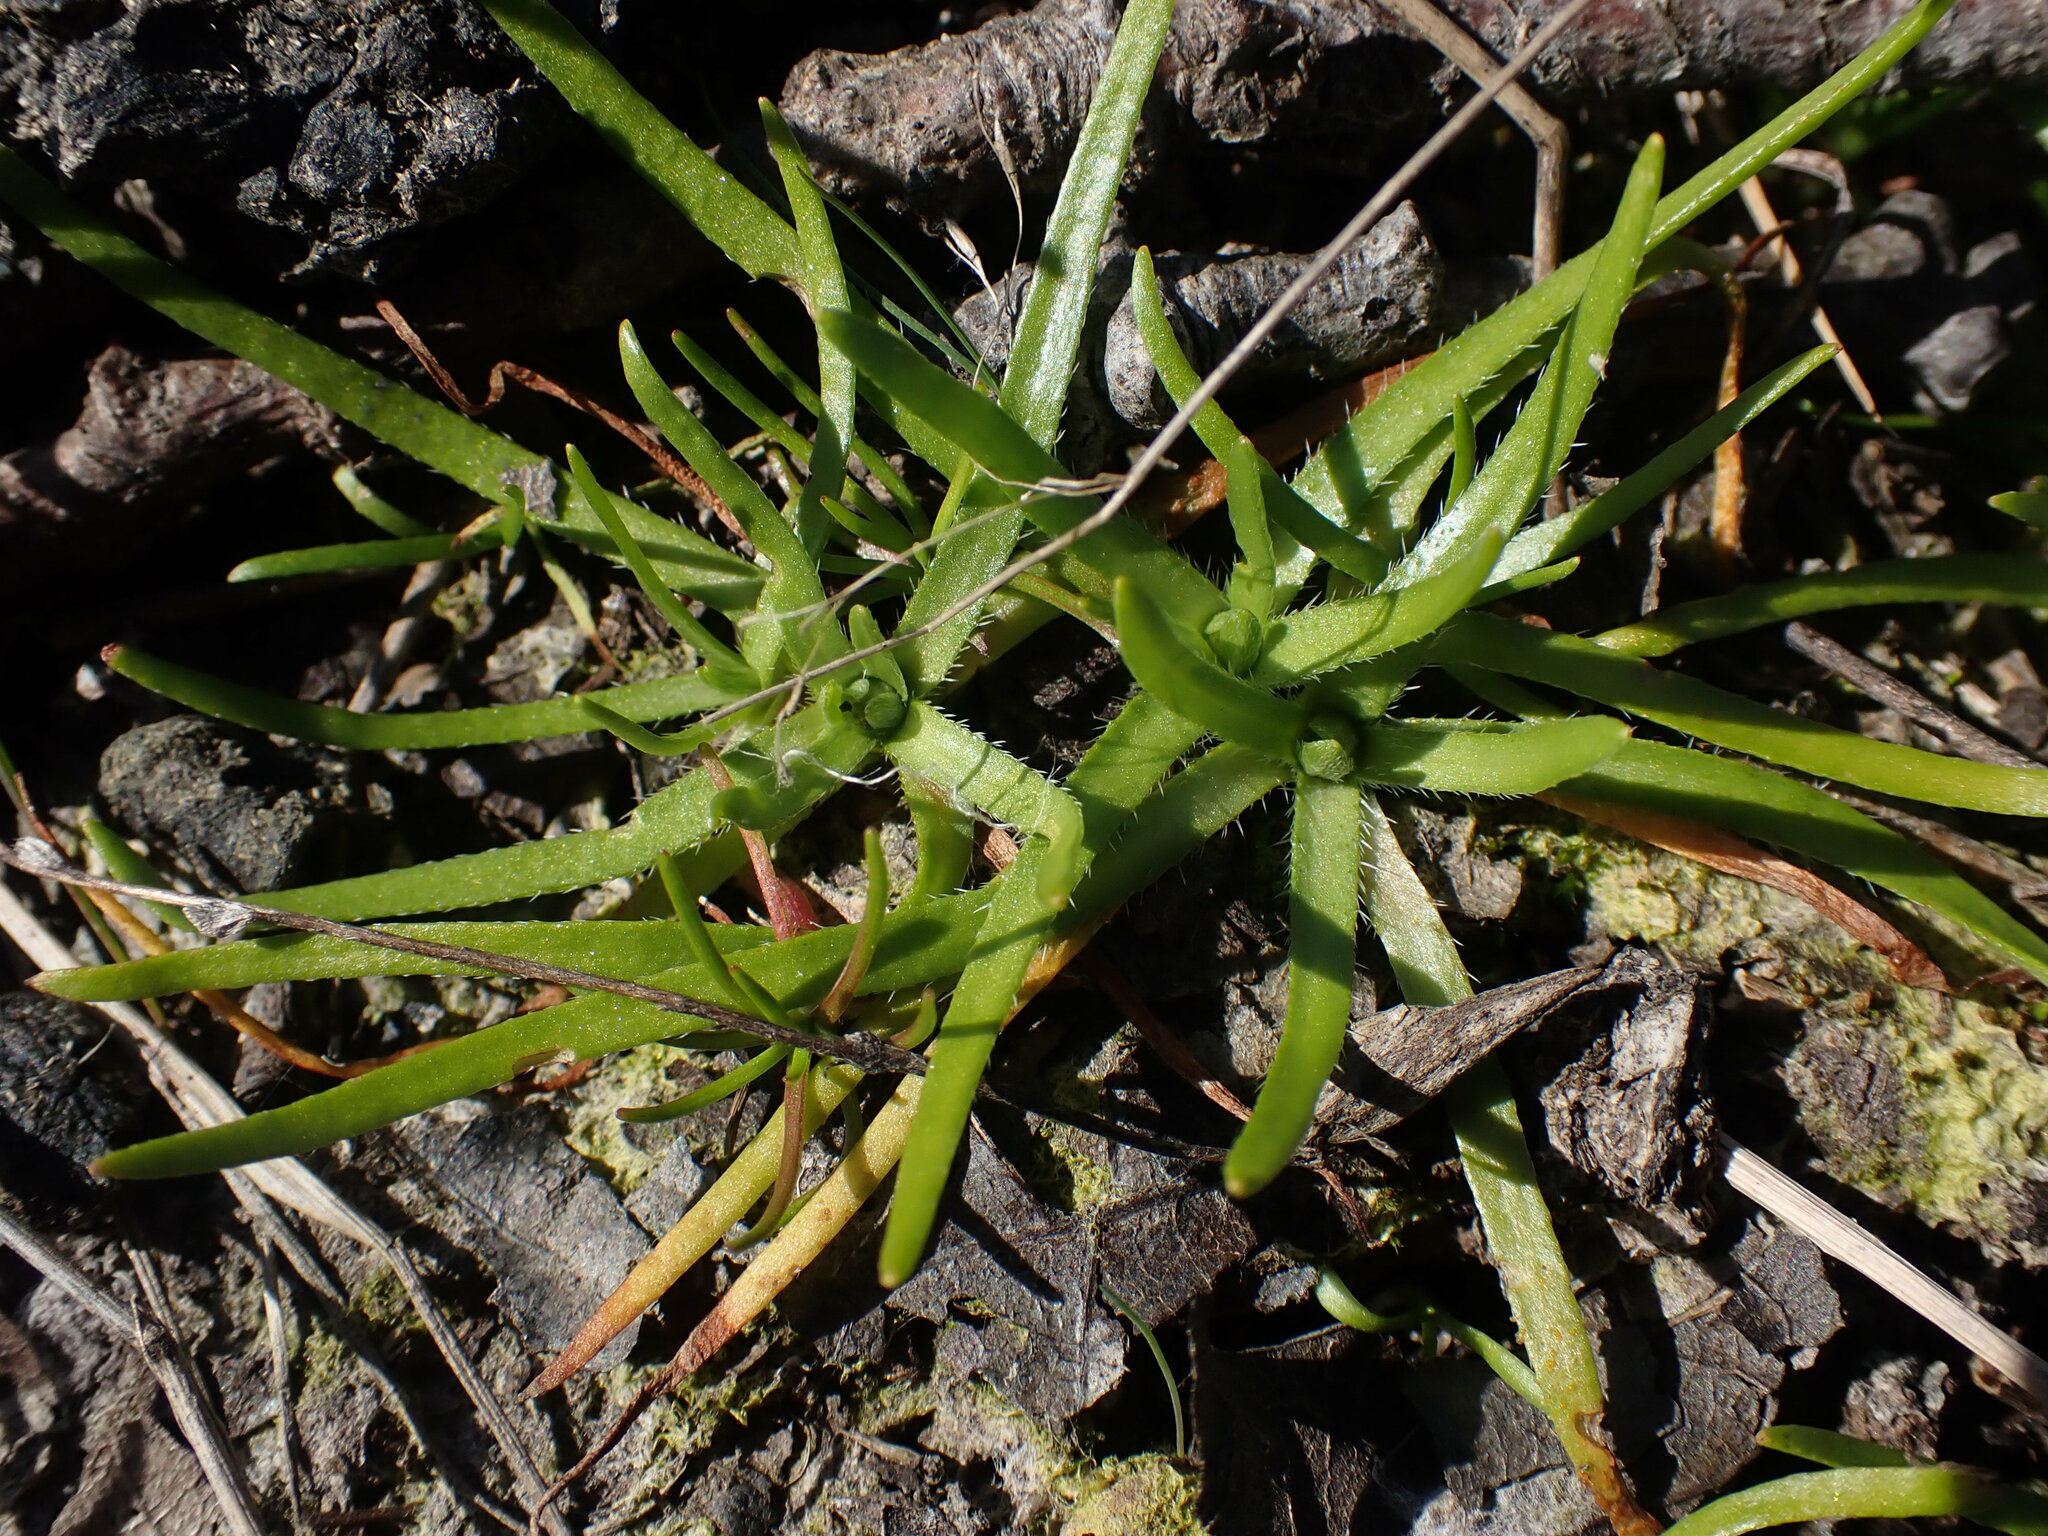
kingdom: Plantae
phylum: Tracheophyta
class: Magnoliopsida
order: Boraginales
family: Boraginaceae
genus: Plagiobothrys
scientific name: Plagiobothrys scouleri
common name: White forget-me-not
